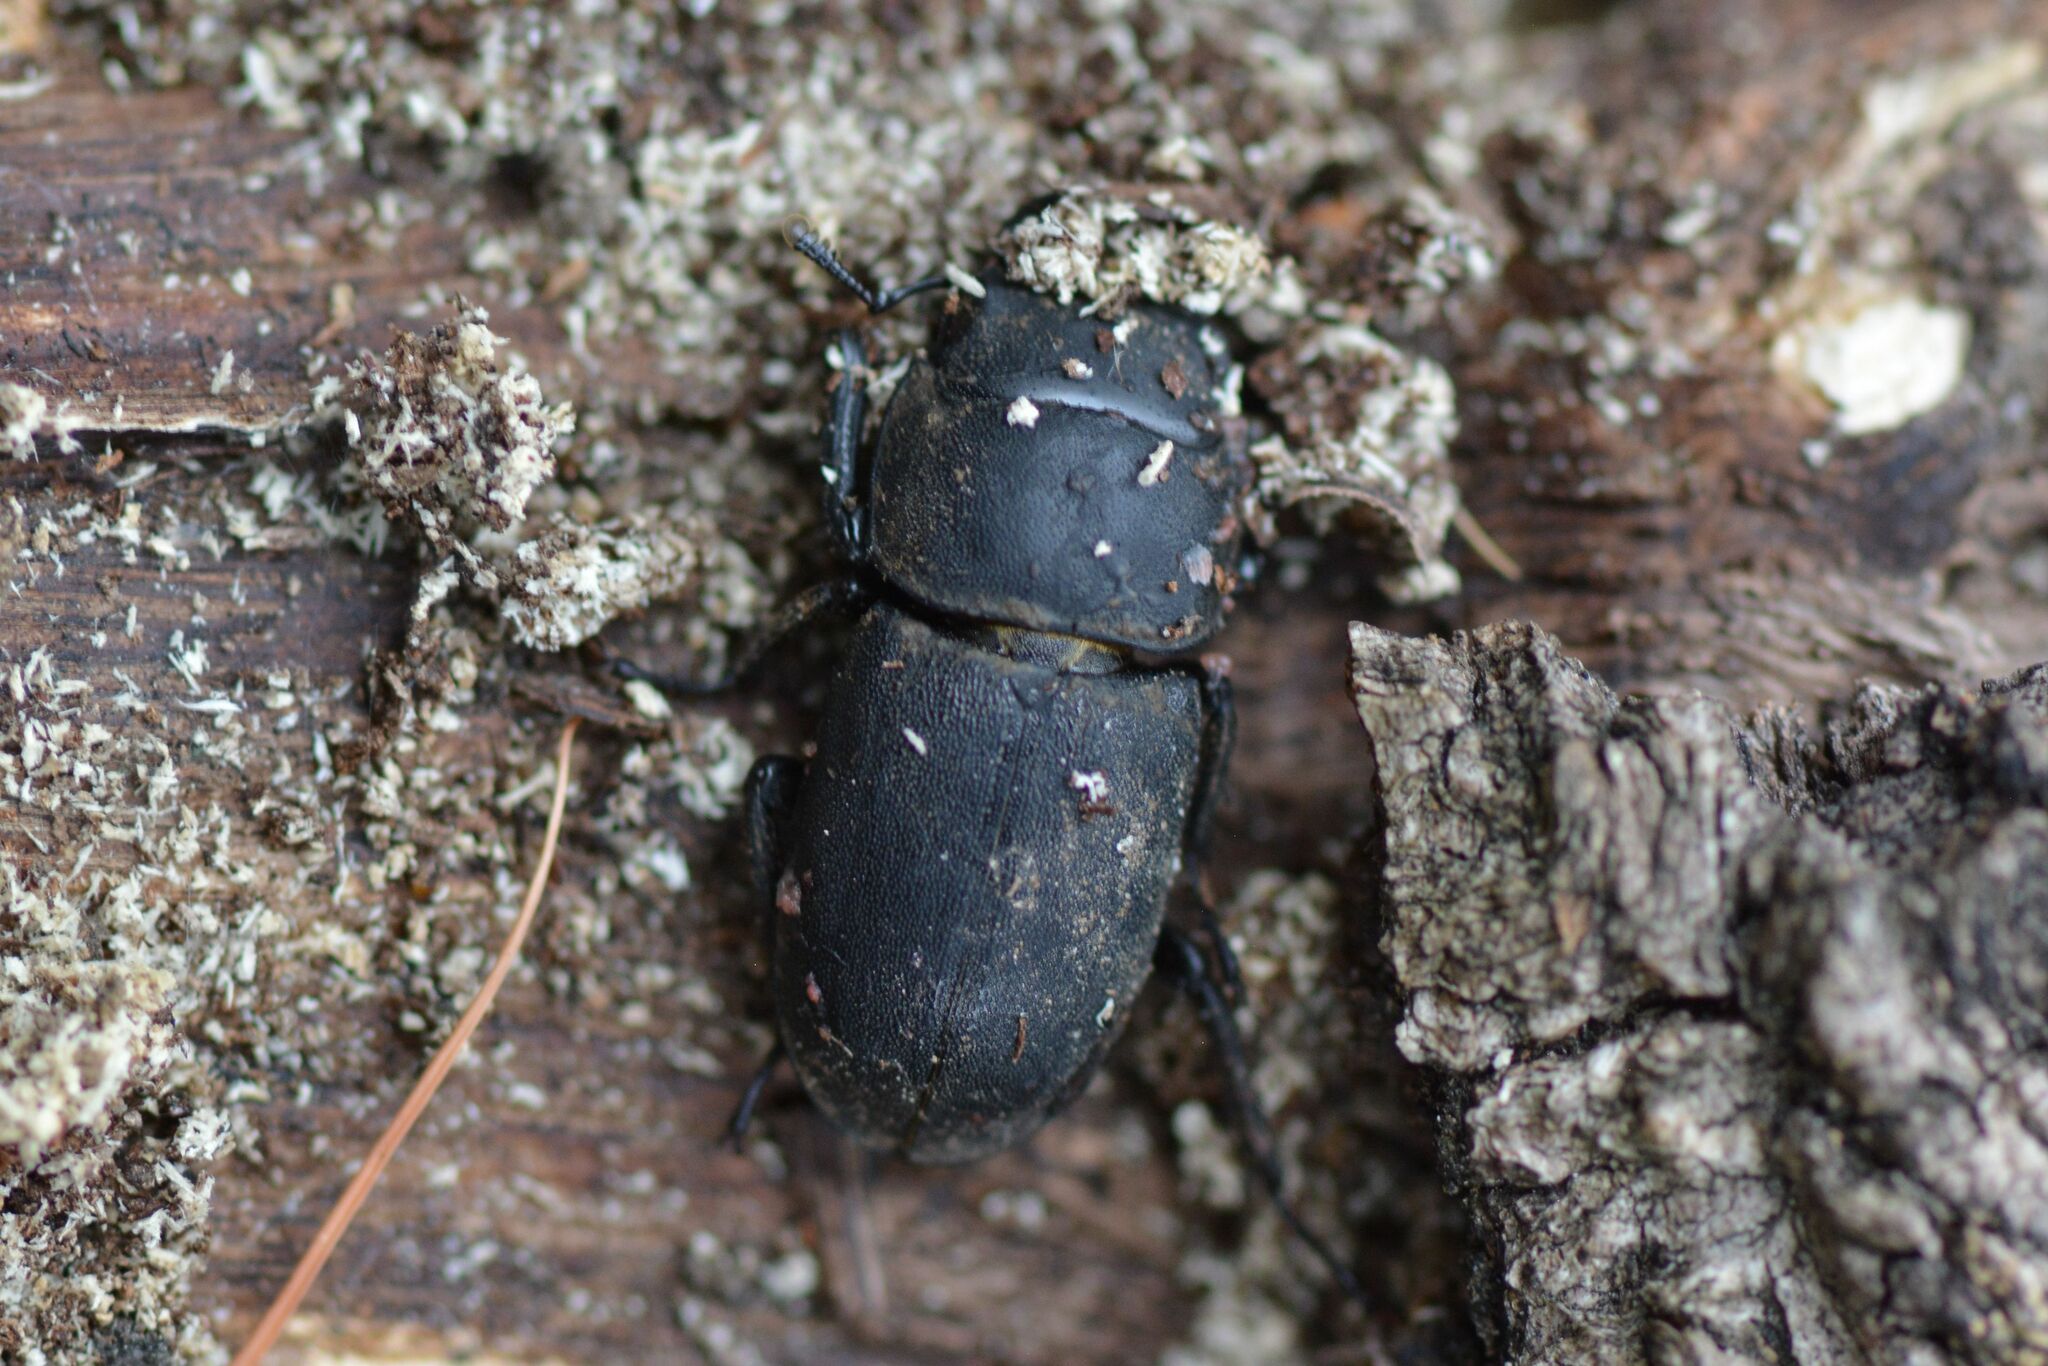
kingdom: Animalia
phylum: Arthropoda
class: Insecta
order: Coleoptera
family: Lucanidae
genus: Dorcus
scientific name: Dorcus parallelipipedus
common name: Lesser stag beetle
